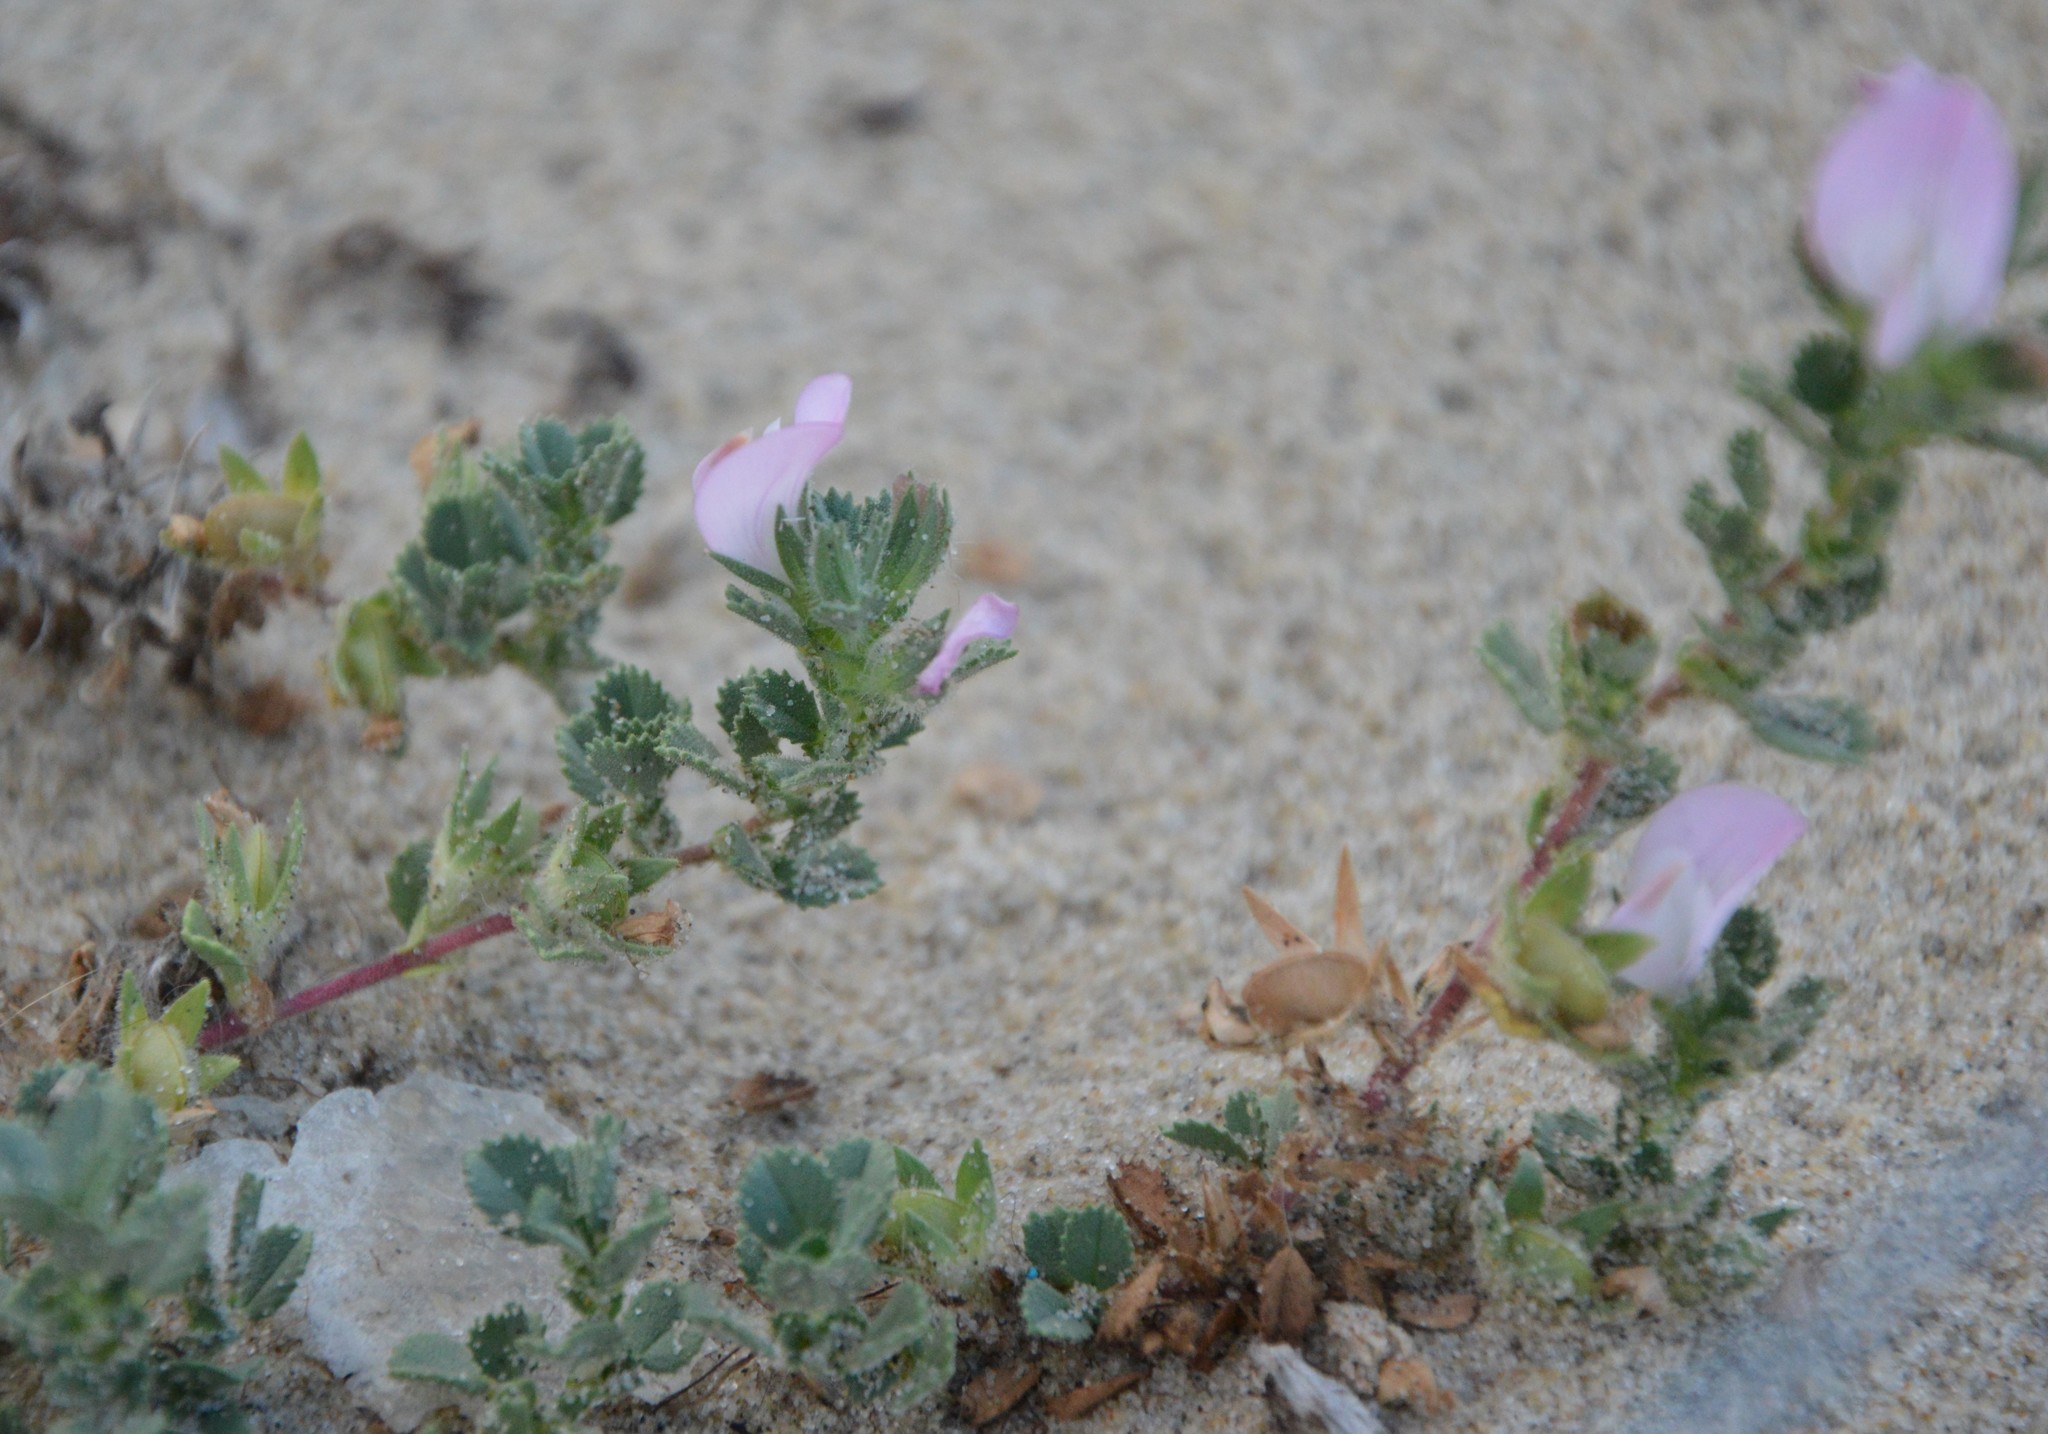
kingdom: Plantae
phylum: Tracheophyta
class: Magnoliopsida
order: Fabales
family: Fabaceae
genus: Ononis
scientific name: Ononis spinosa
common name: Spiny restharrow
